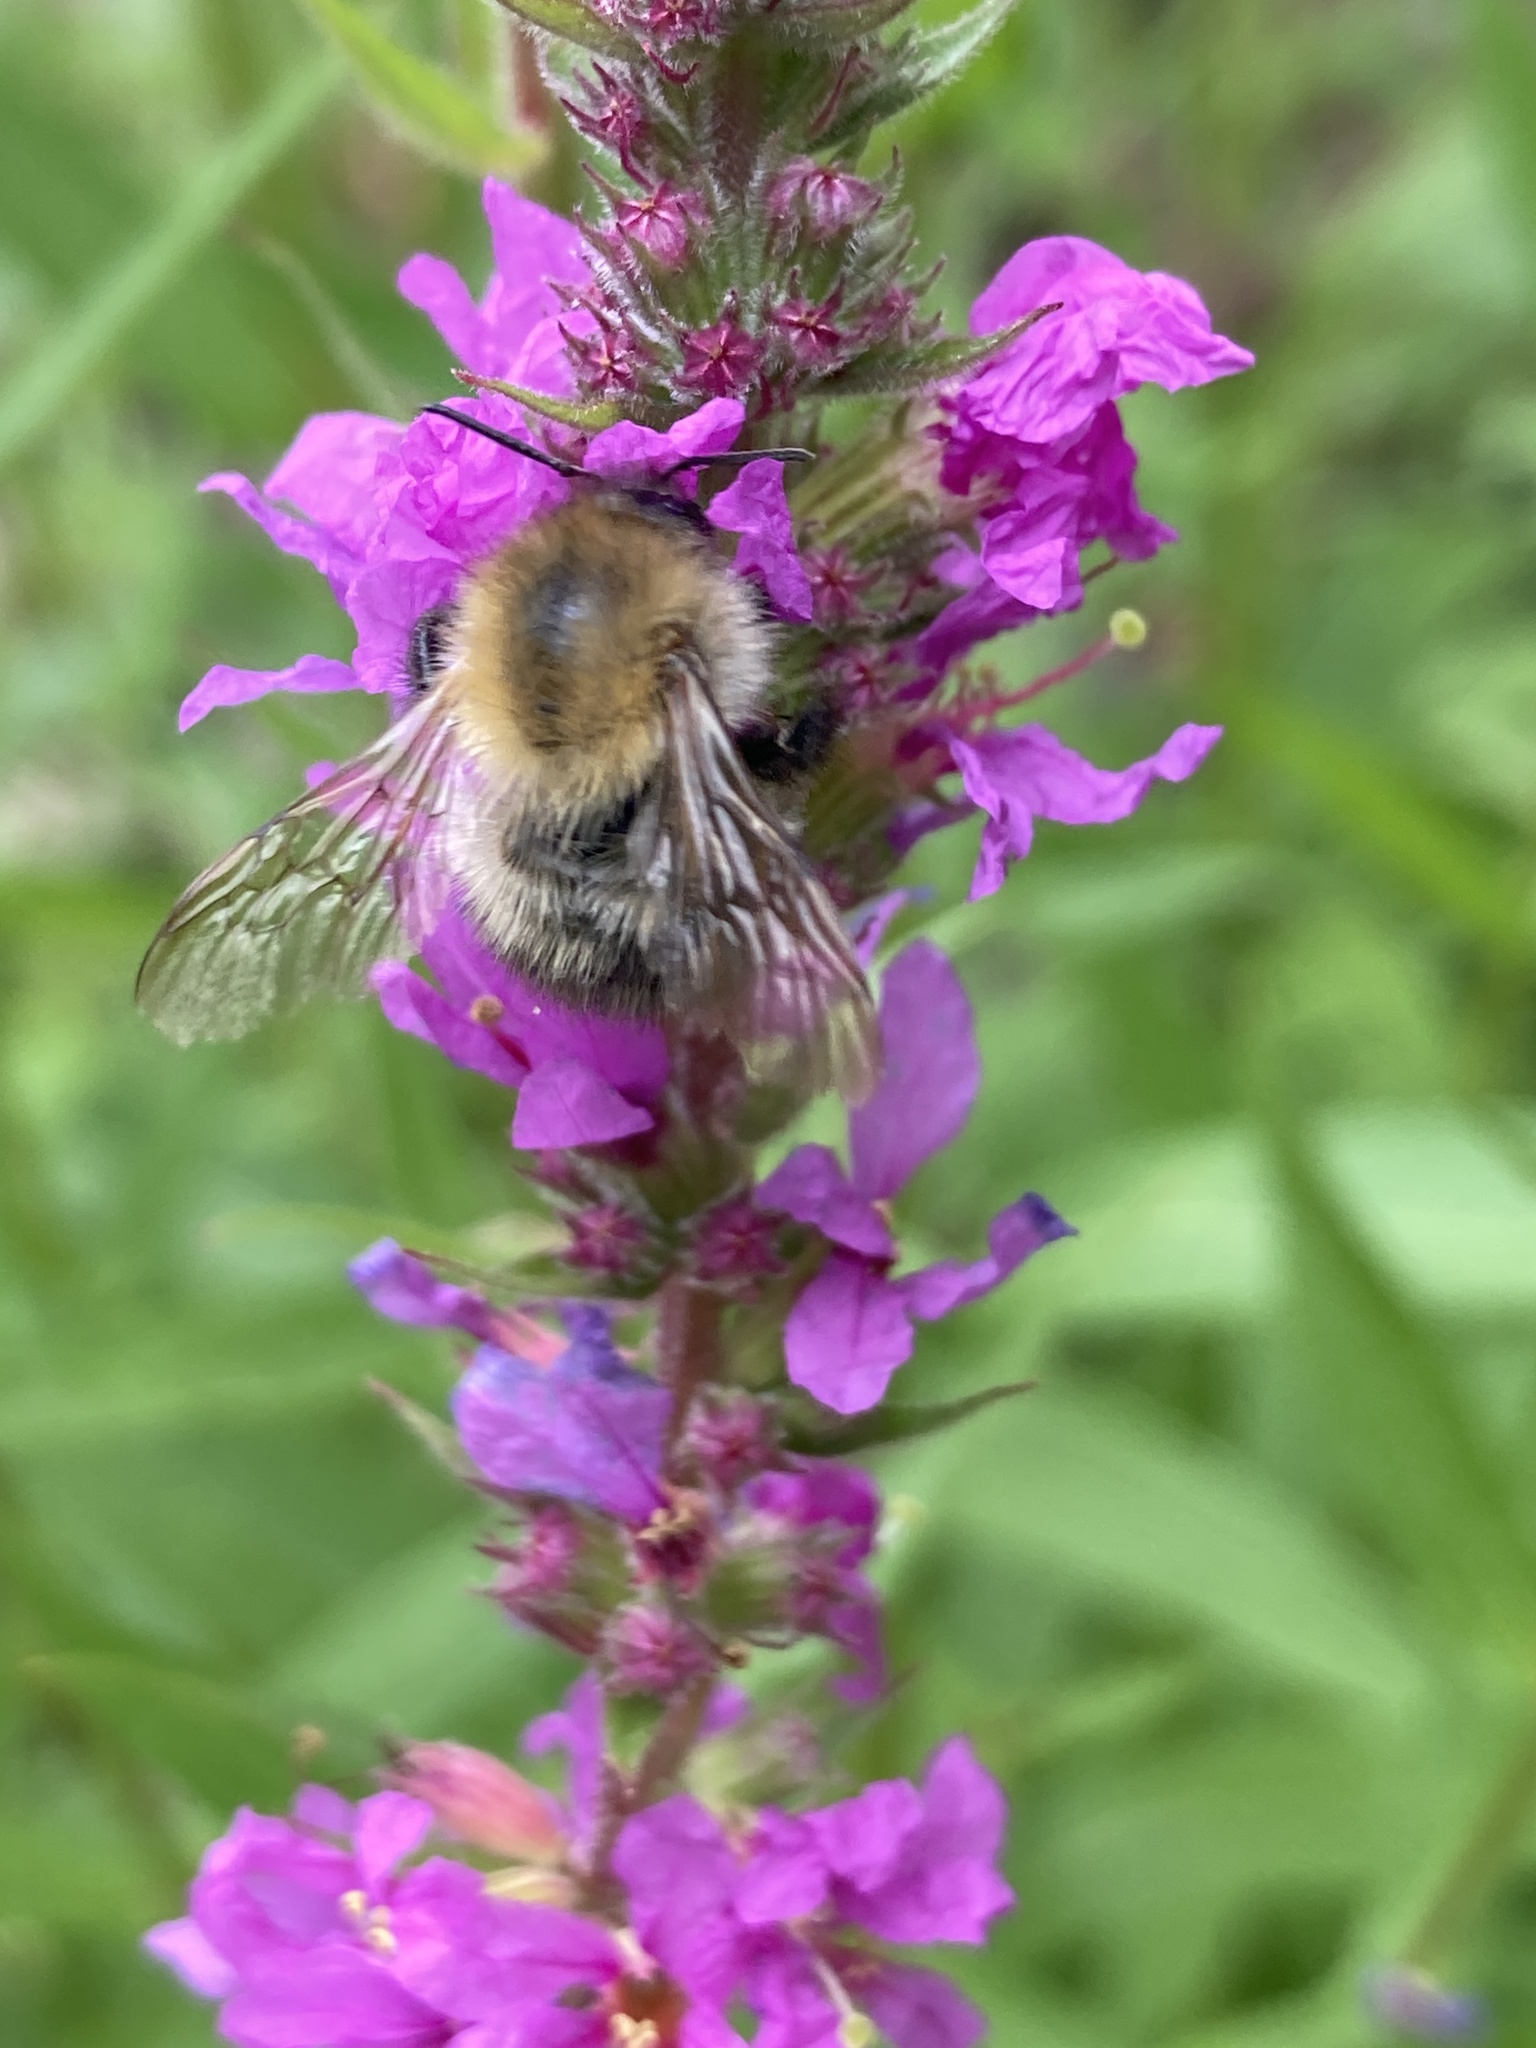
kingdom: Animalia
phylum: Arthropoda
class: Insecta
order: Hymenoptera
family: Apidae
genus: Bombus
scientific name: Bombus pascuorum
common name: Common carder bee
